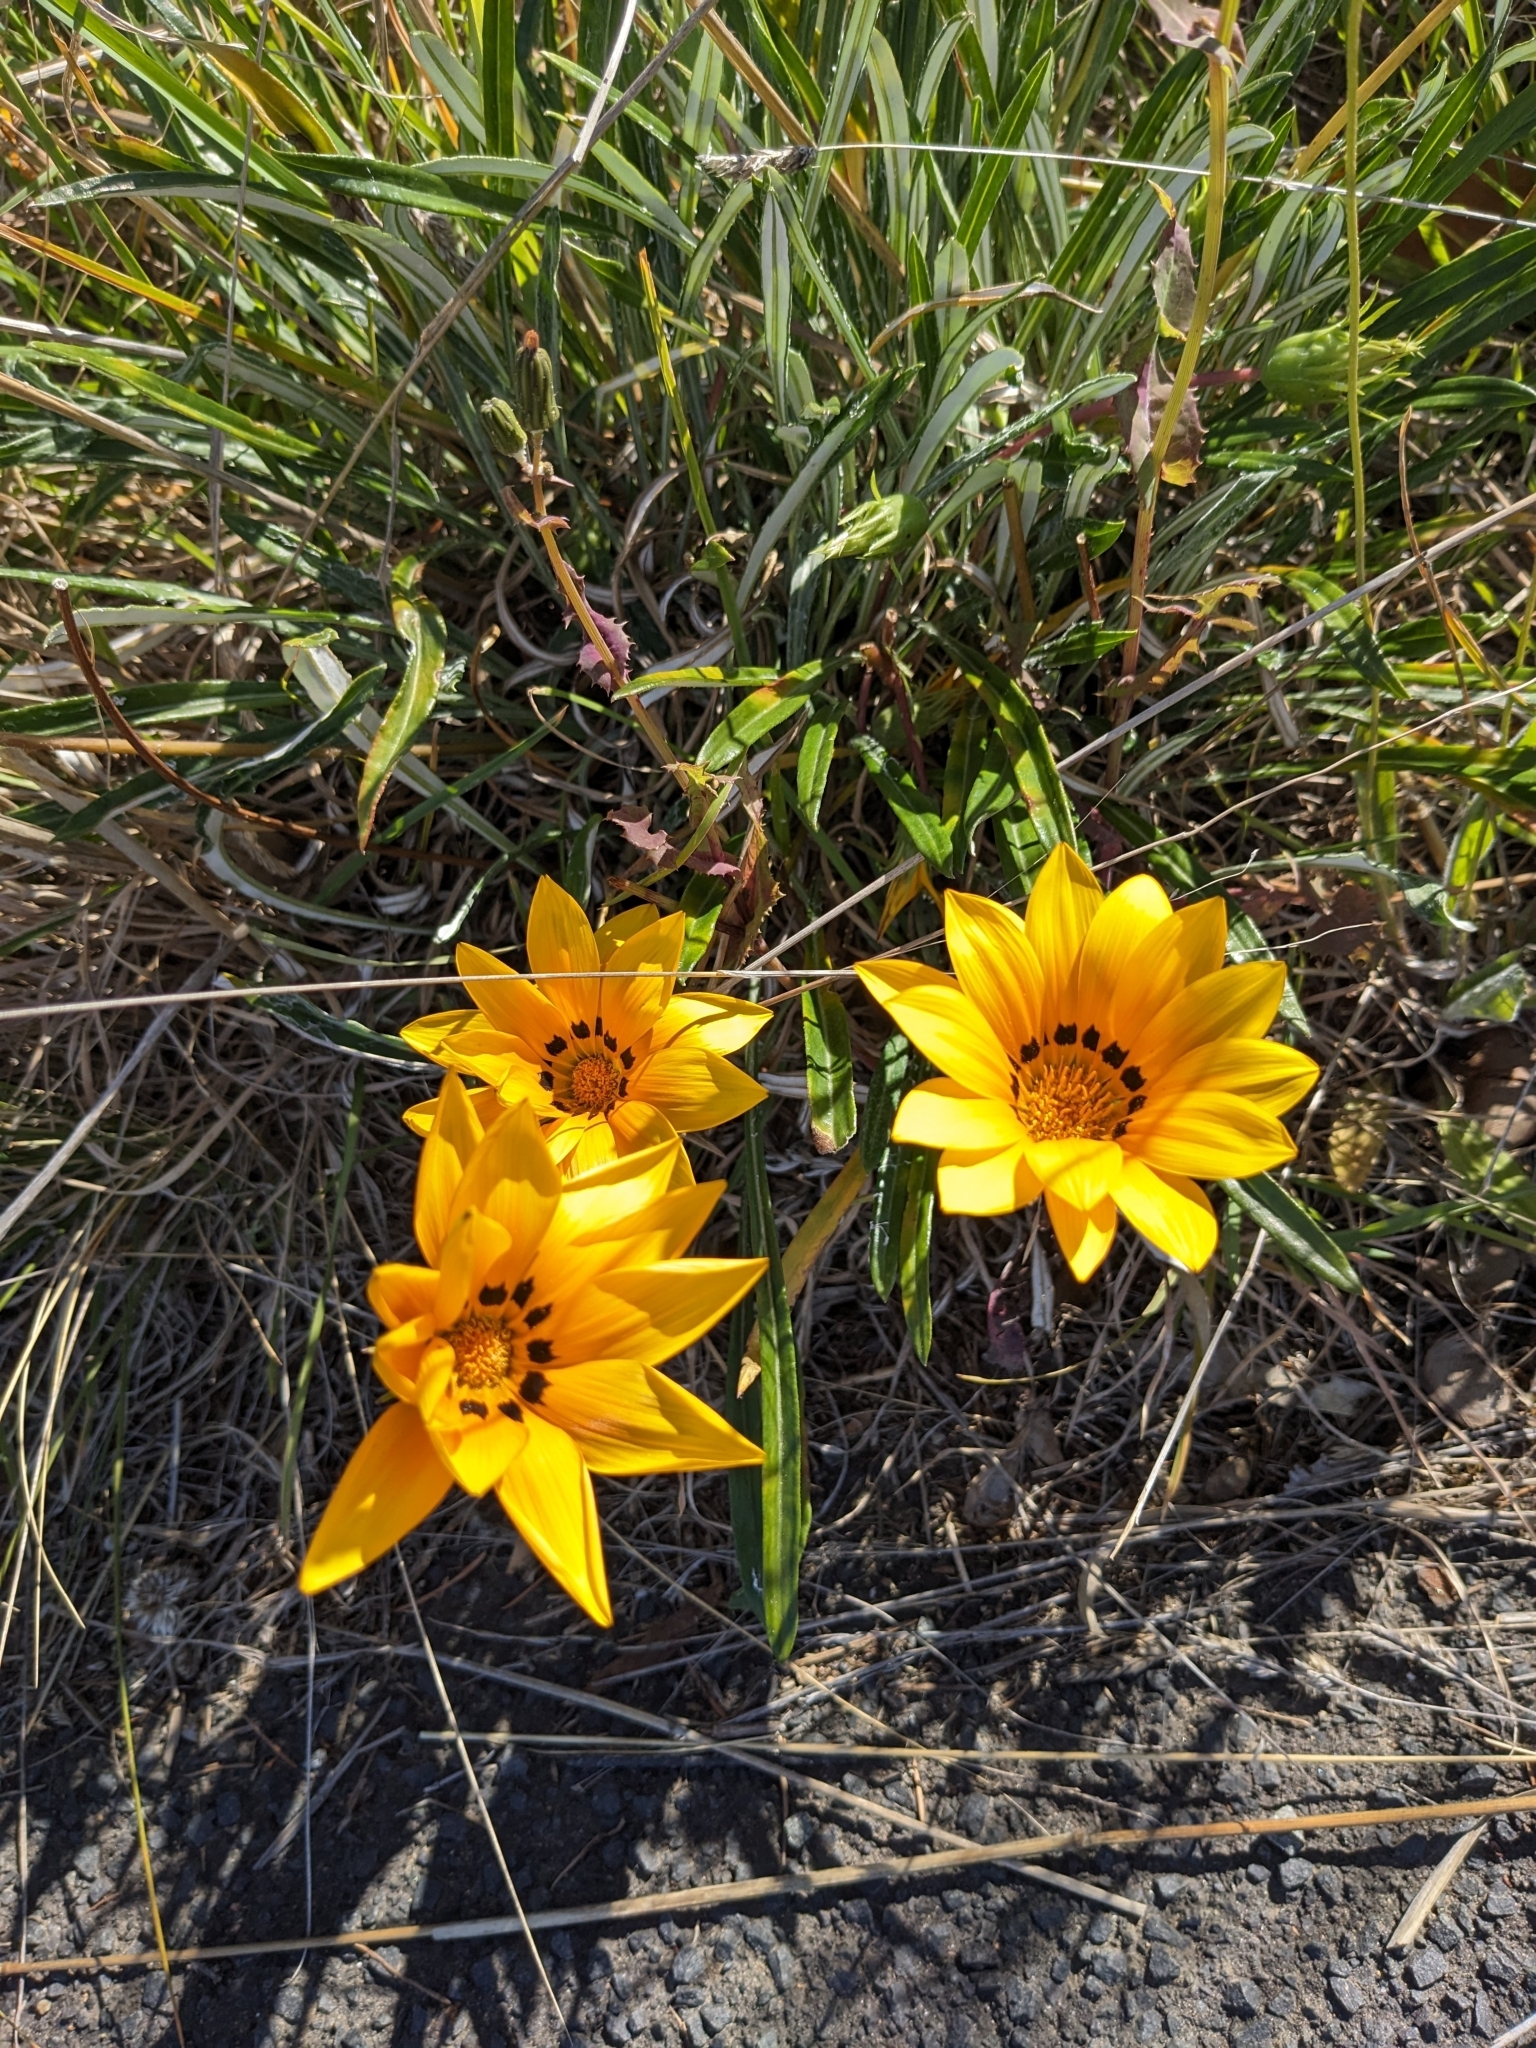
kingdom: Plantae
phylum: Tracheophyta
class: Magnoliopsida
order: Asterales
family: Asteraceae
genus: Gazania
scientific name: Gazania splendens
